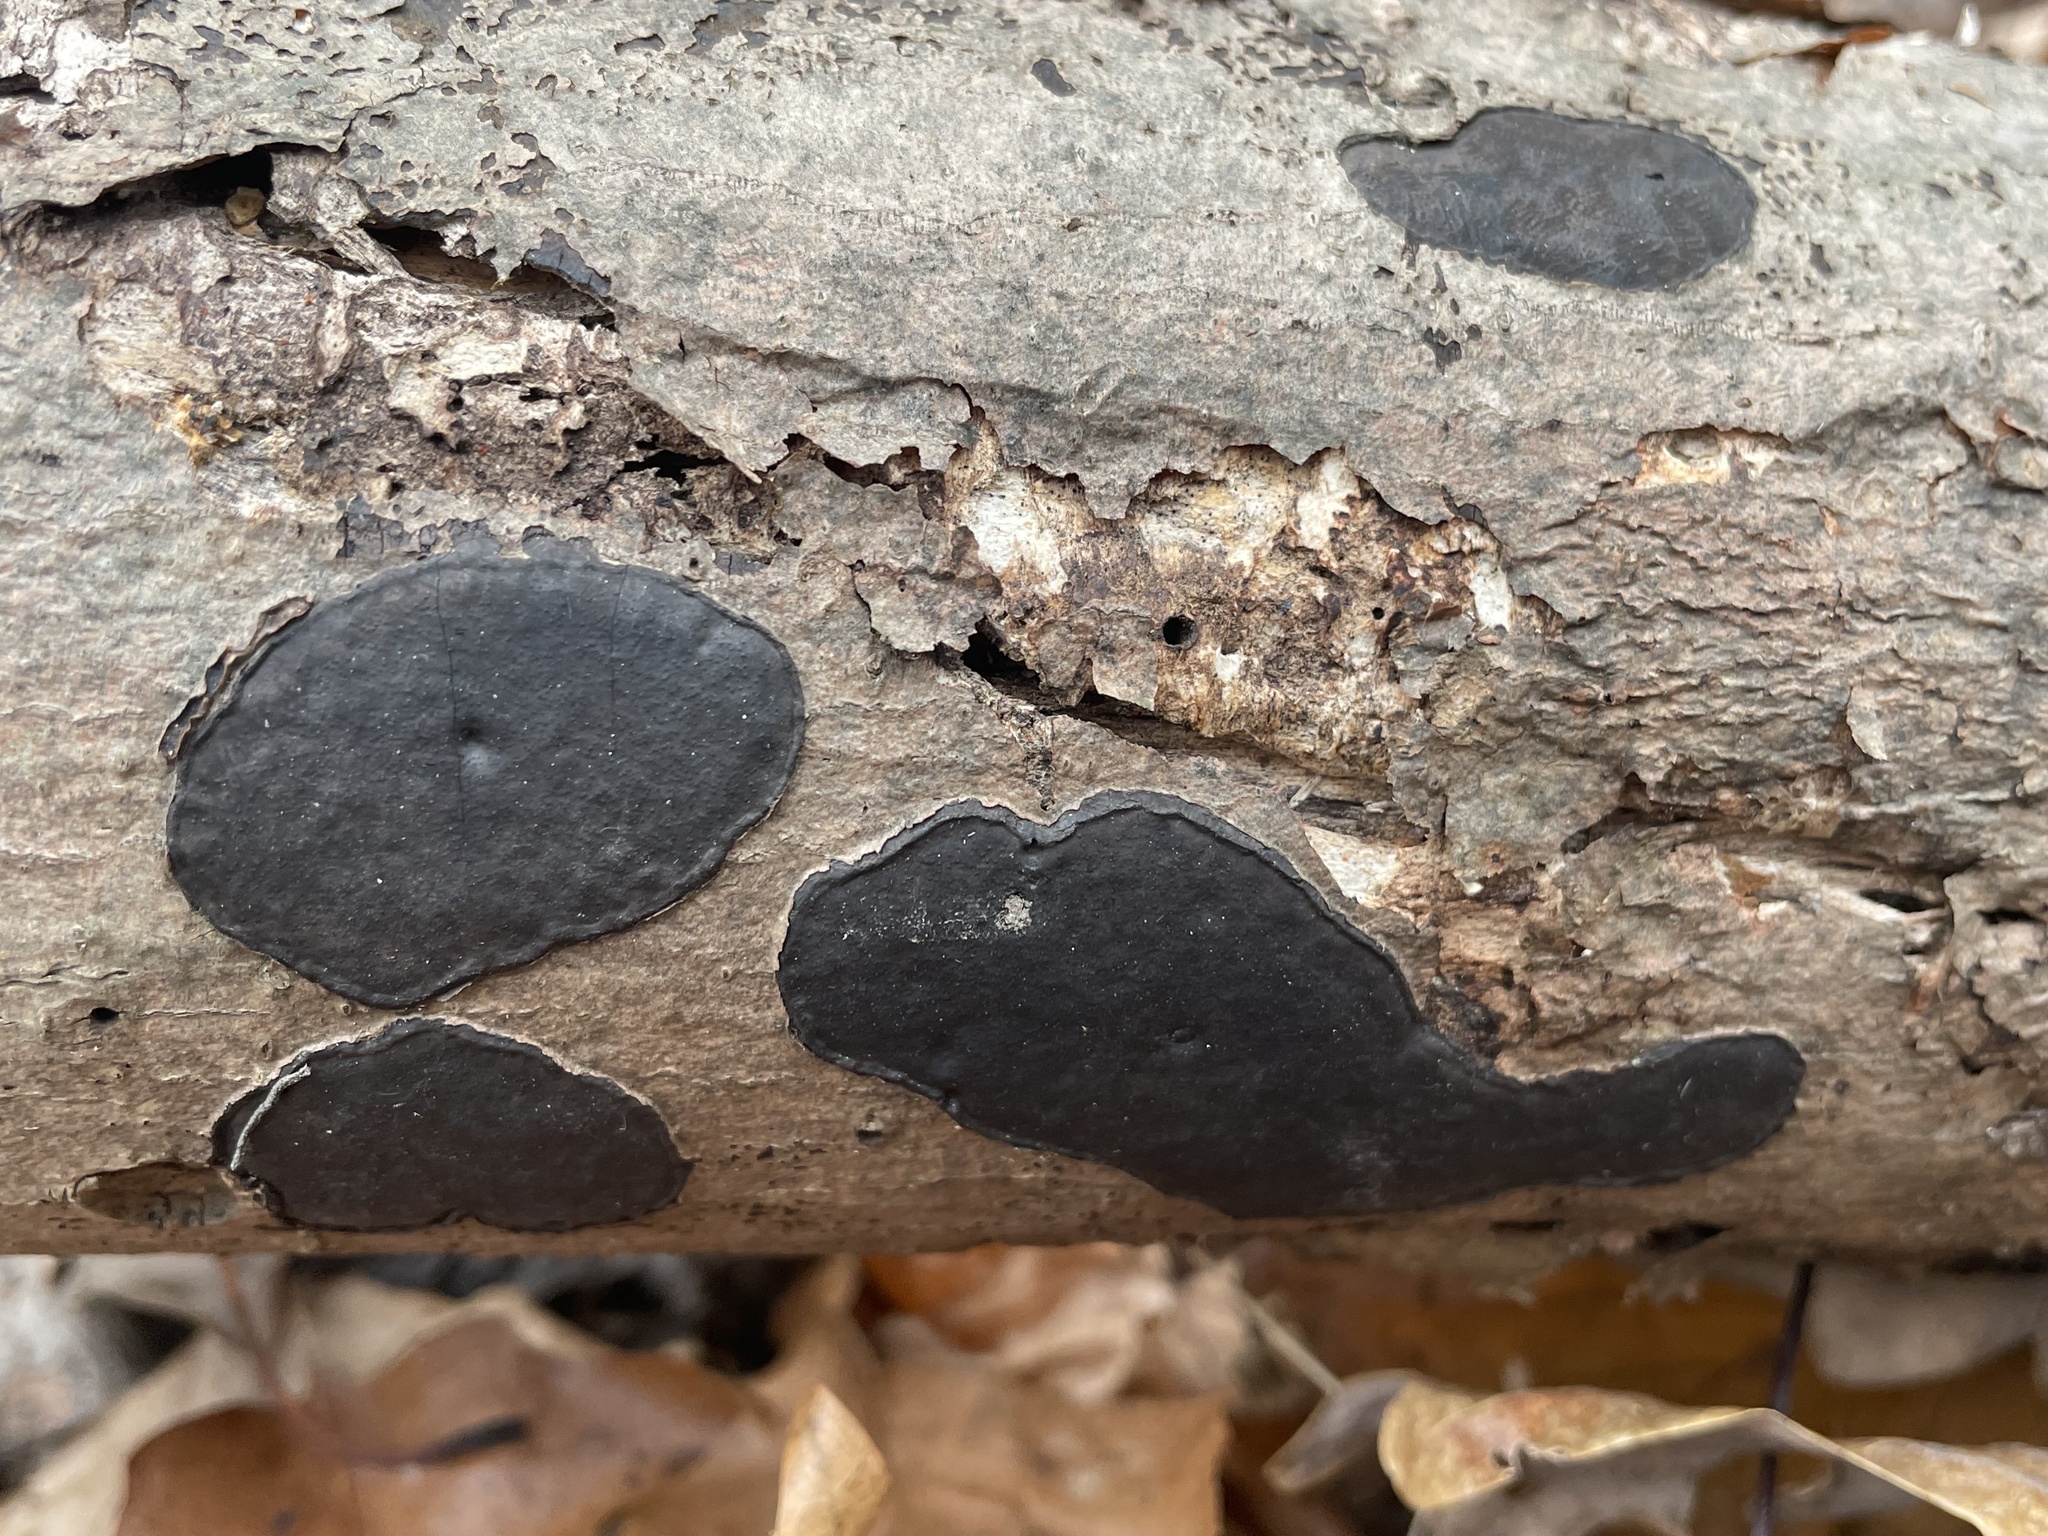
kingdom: Fungi
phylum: Ascomycota
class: Sordariomycetes
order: Xylariales
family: Diatrypaceae
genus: Diatrype
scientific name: Diatrype stigma
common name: Common tarcrust
